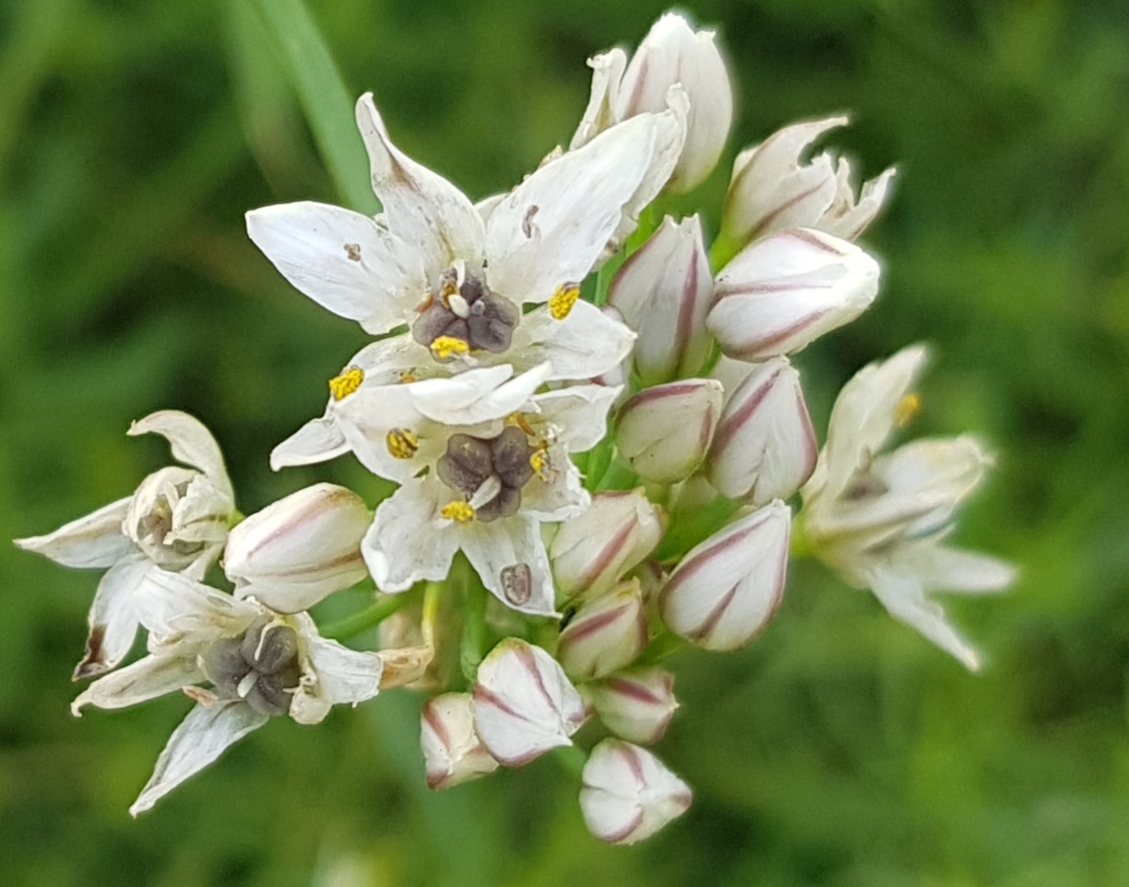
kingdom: Plantae
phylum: Tracheophyta
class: Liliopsida
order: Asparagales
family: Amaryllidaceae
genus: Allium
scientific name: Allium ramosum
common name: Fragrant garlic
